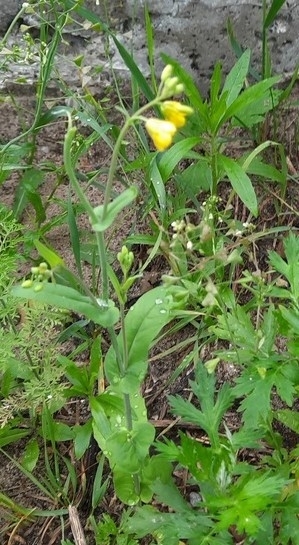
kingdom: Plantae
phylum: Tracheophyta
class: Magnoliopsida
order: Brassicales
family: Brassicaceae
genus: Brassica
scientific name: Brassica rapa
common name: Field mustard
